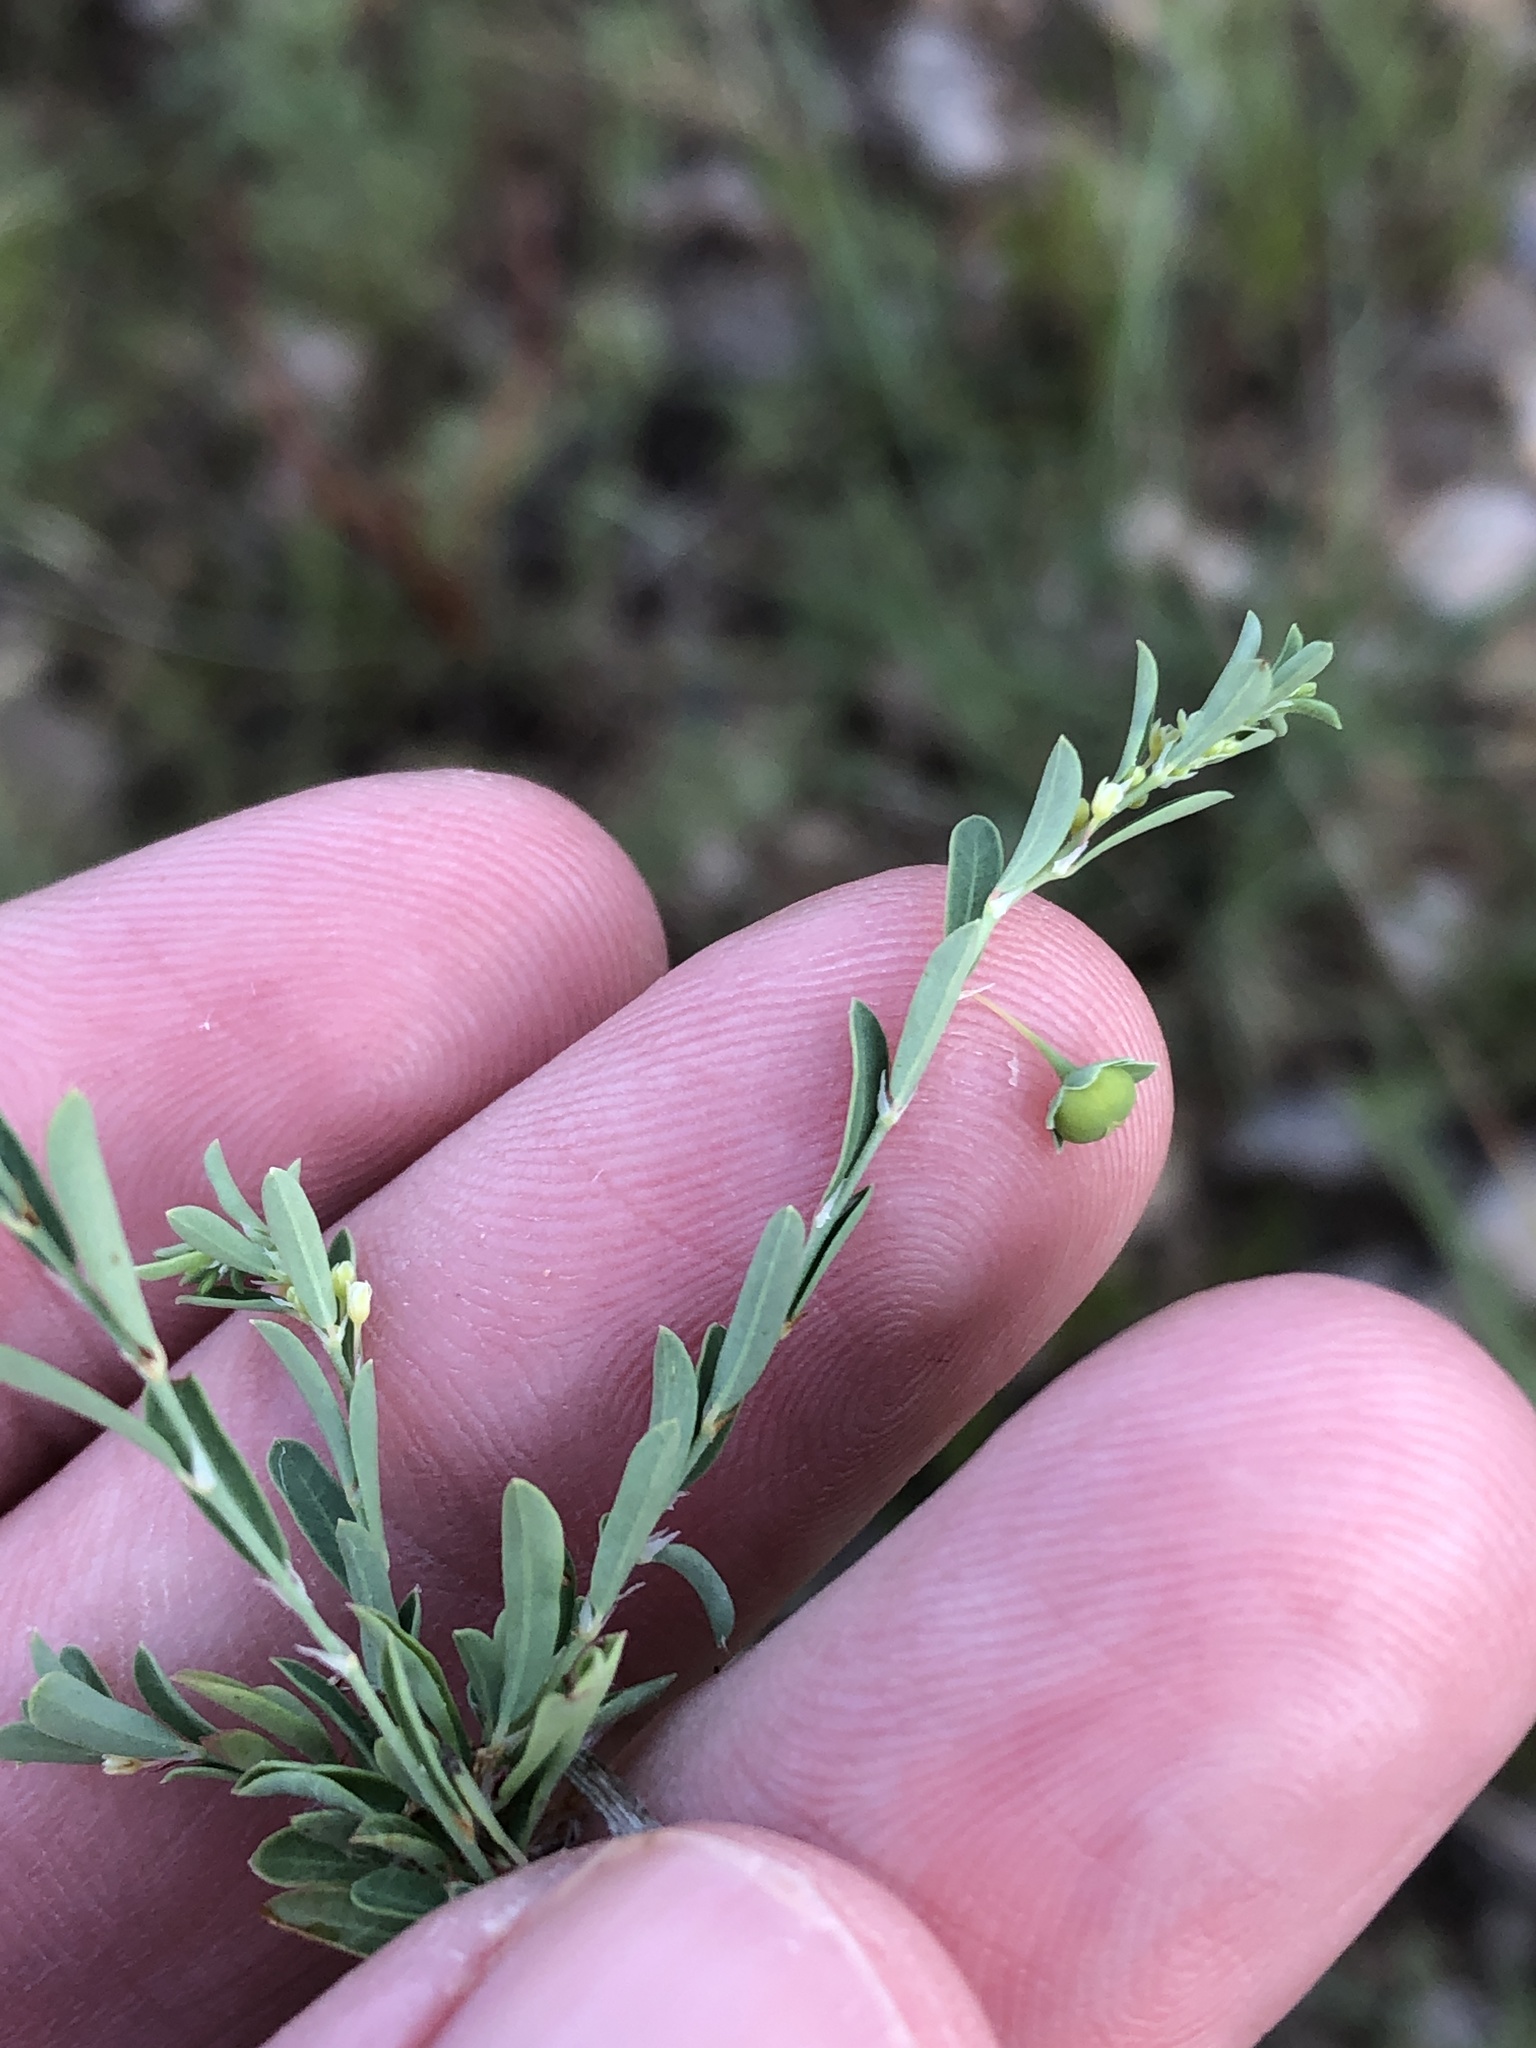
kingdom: Plantae
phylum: Tracheophyta
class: Magnoliopsida
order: Malpighiales
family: Phyllanthaceae
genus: Phyllanthus
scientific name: Phyllanthus polygonoides
